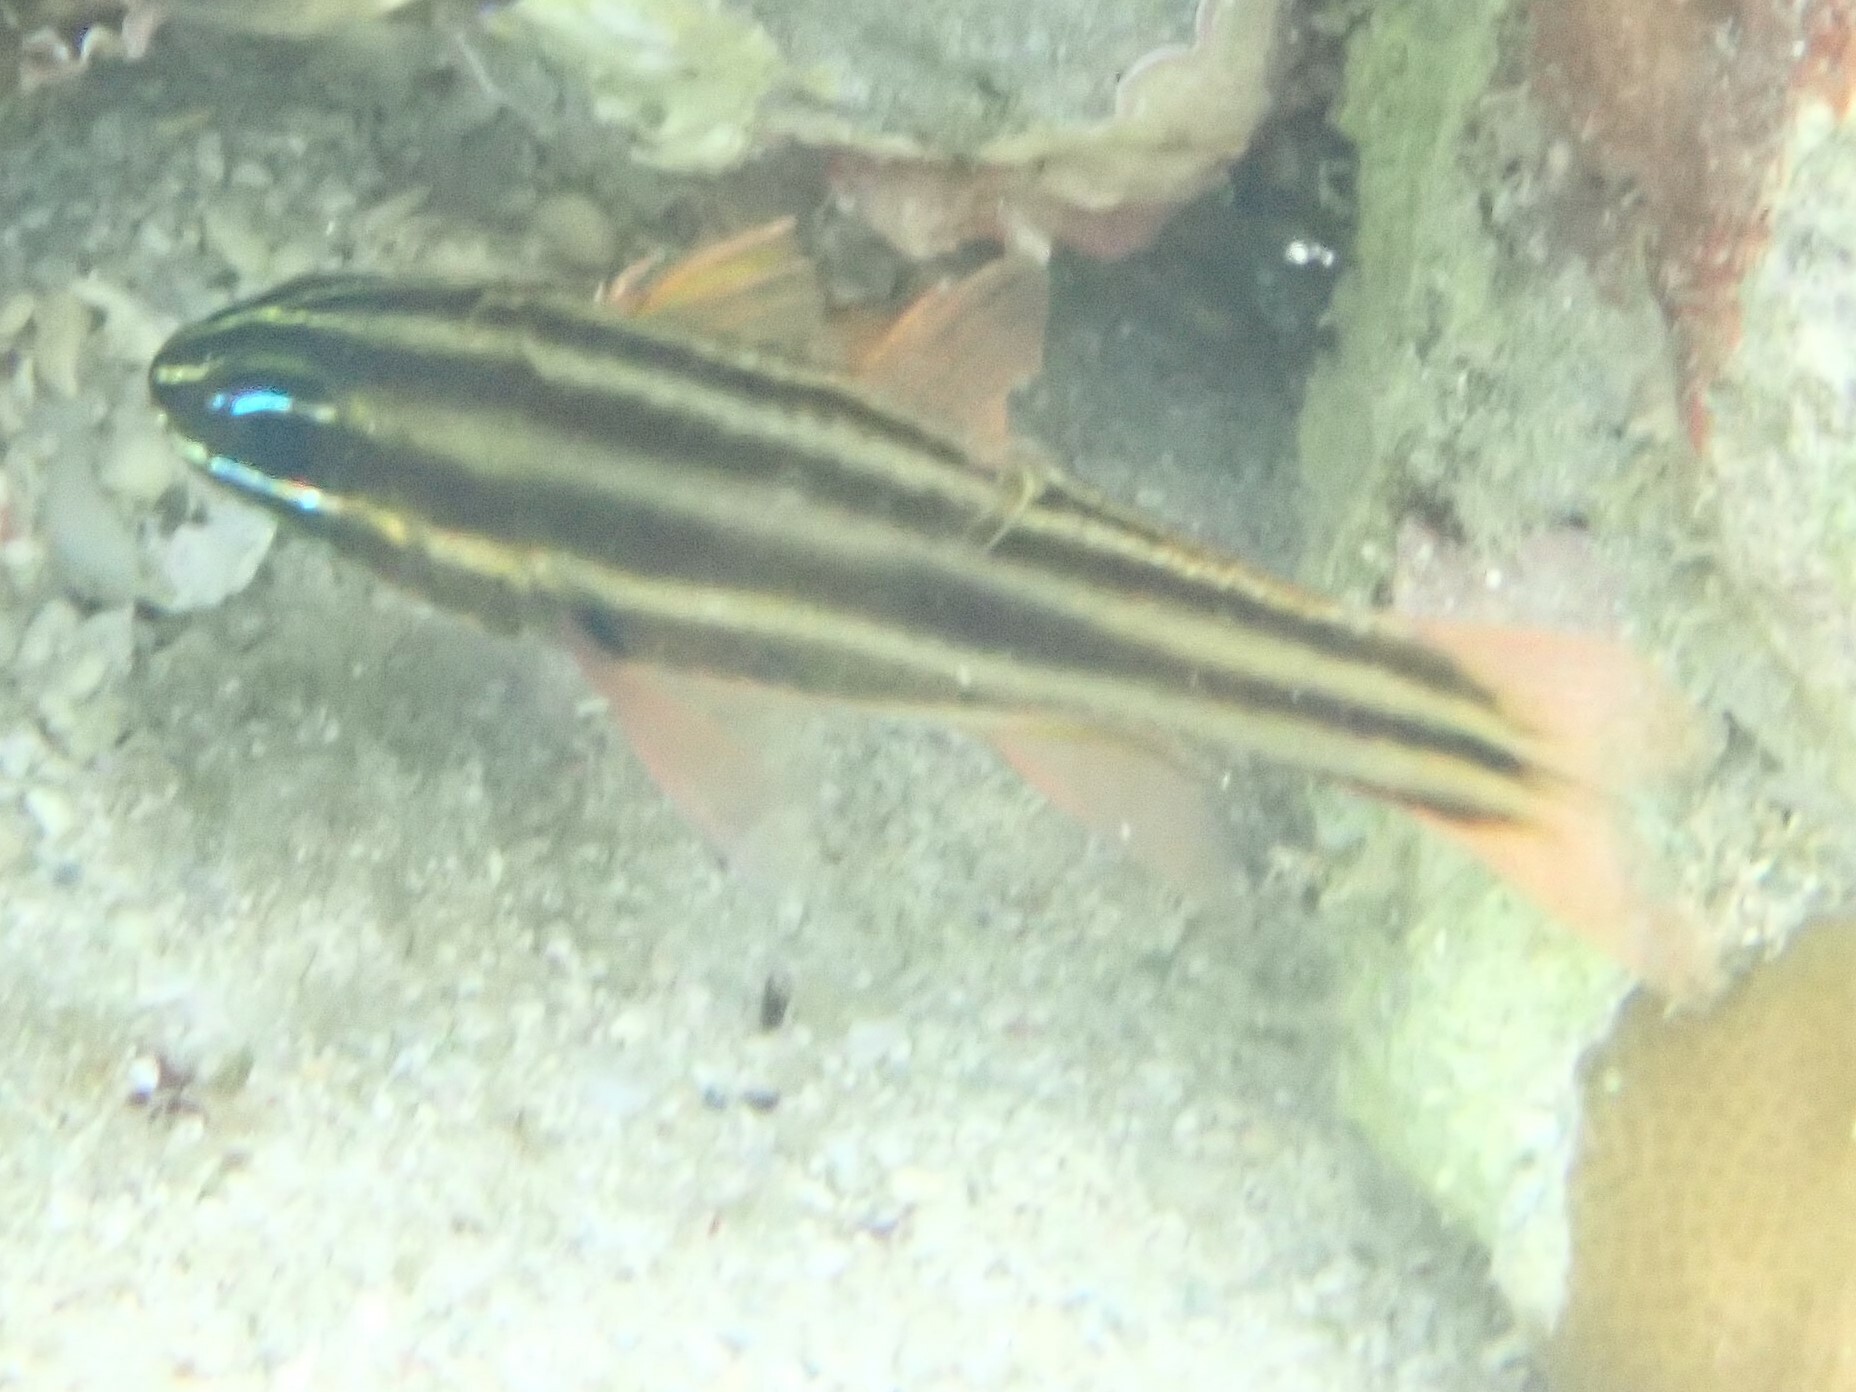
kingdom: Animalia
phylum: Chordata
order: Perciformes
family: Apogonidae
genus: Ostorhinchus
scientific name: Ostorhinchus novemfasciatus
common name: Seven-striped cardinalfish
